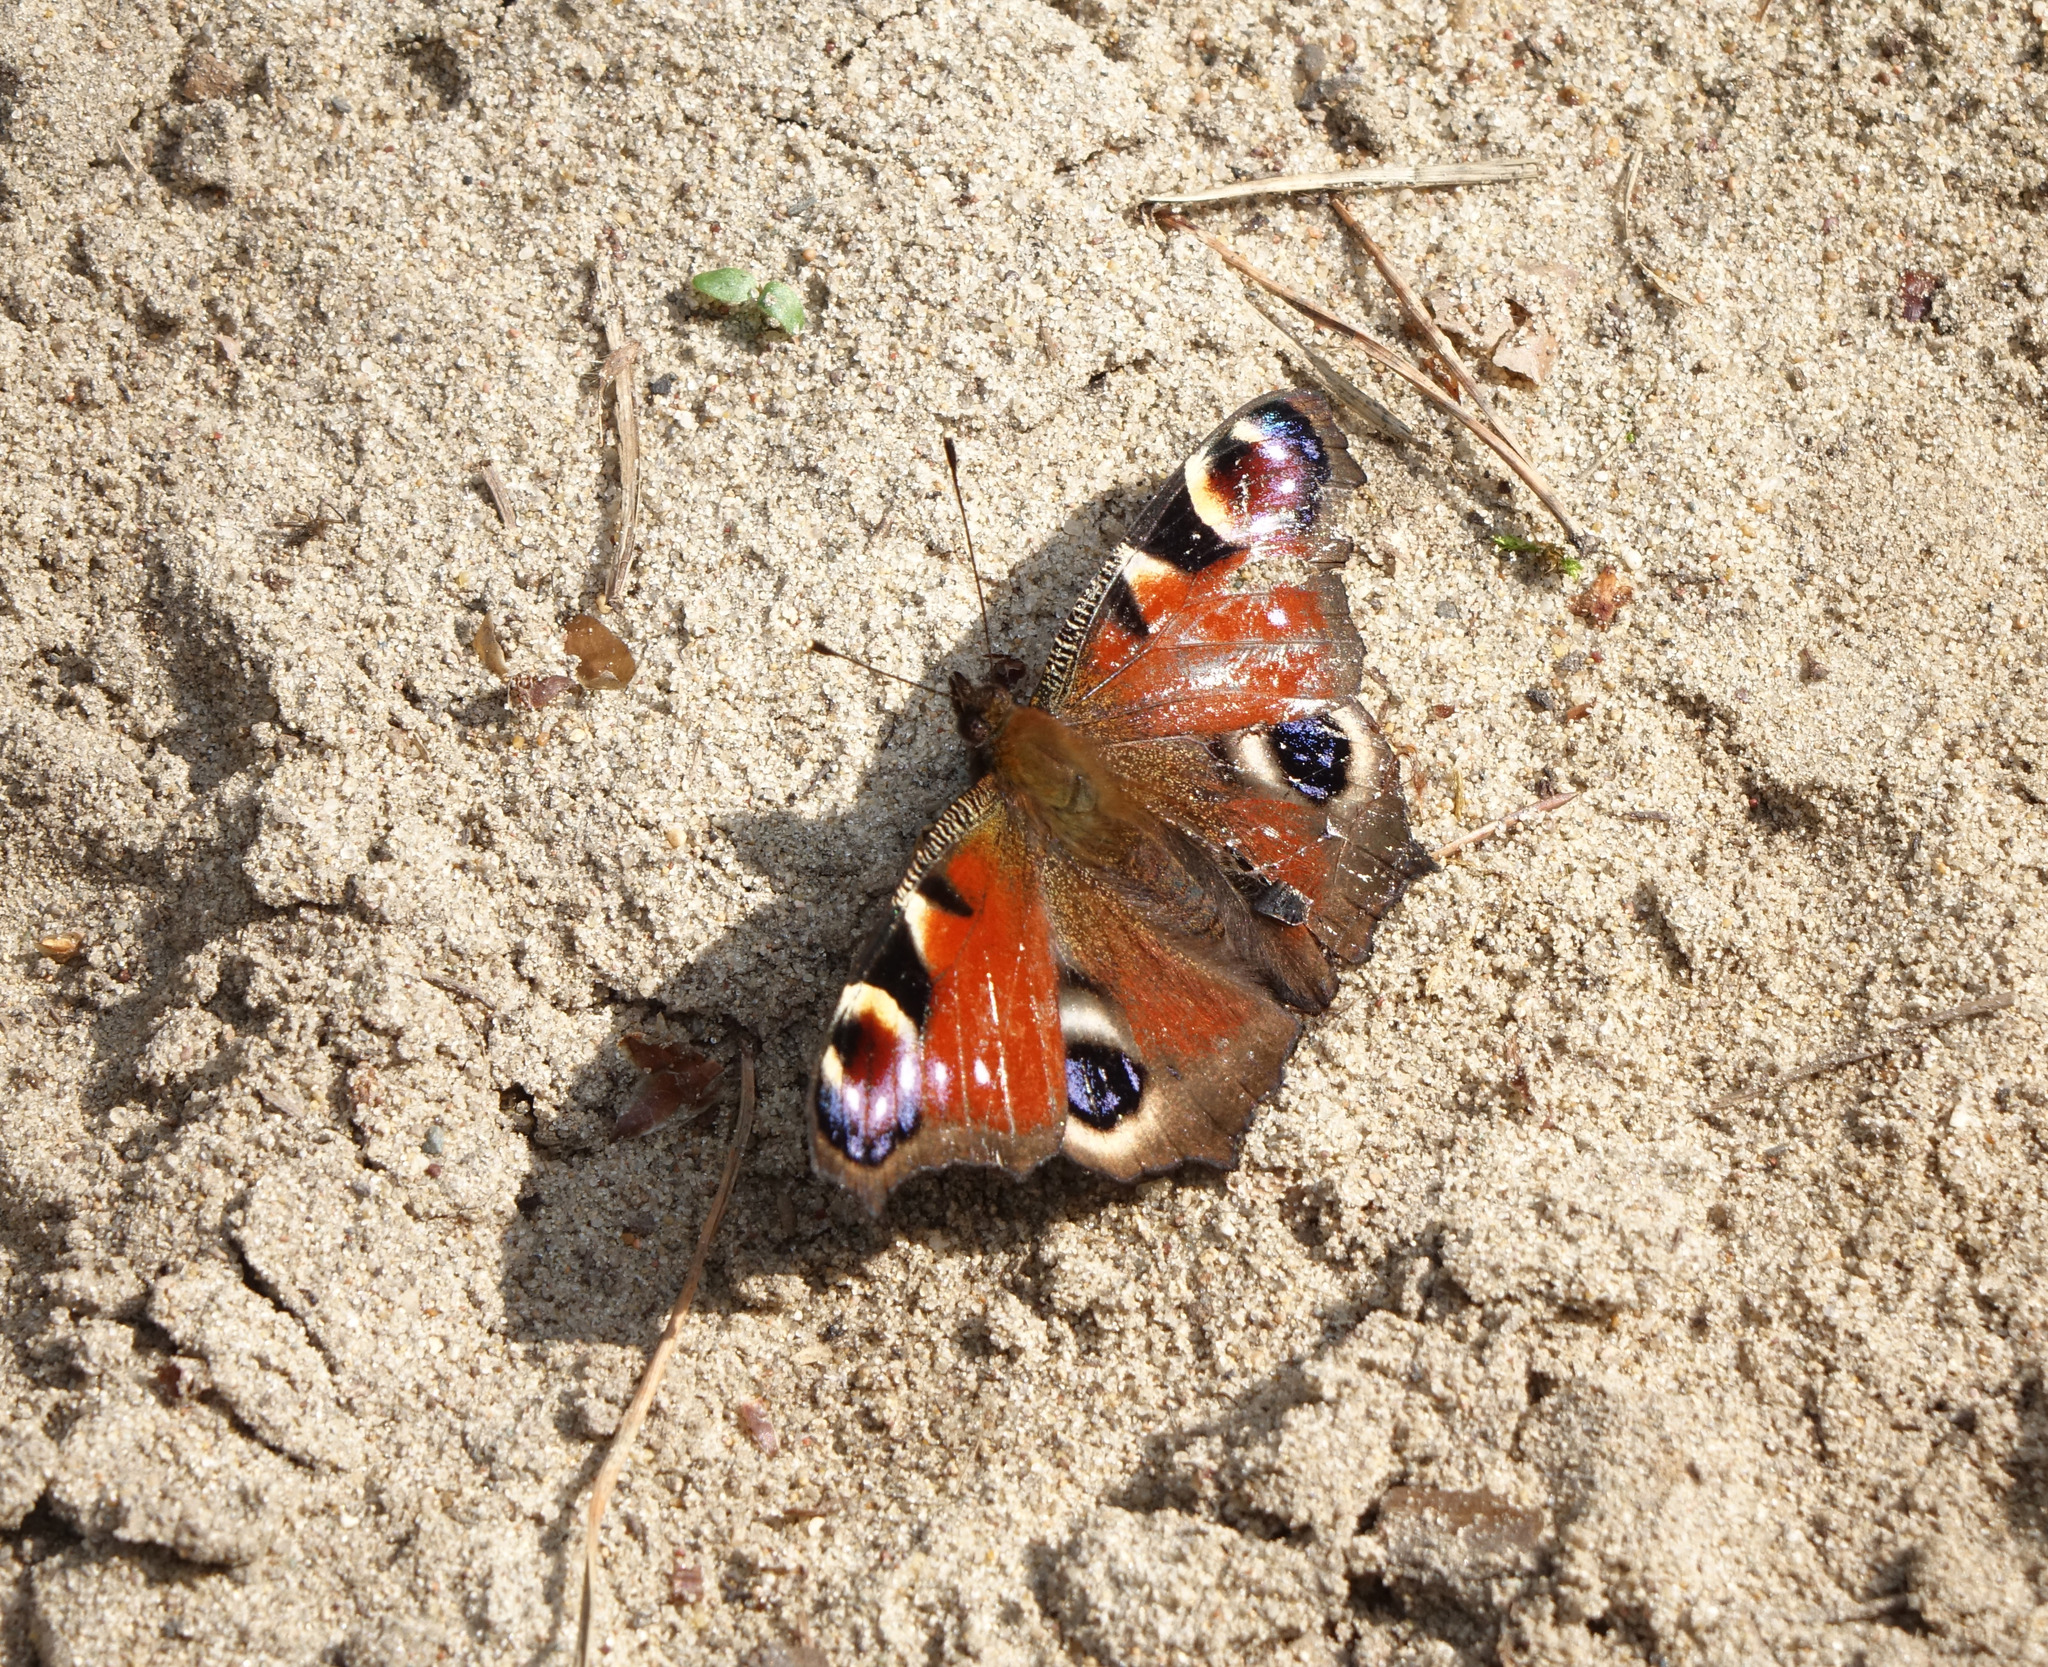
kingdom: Animalia
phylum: Arthropoda
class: Insecta
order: Lepidoptera
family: Nymphalidae
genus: Aglais
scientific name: Aglais io
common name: Peacock
